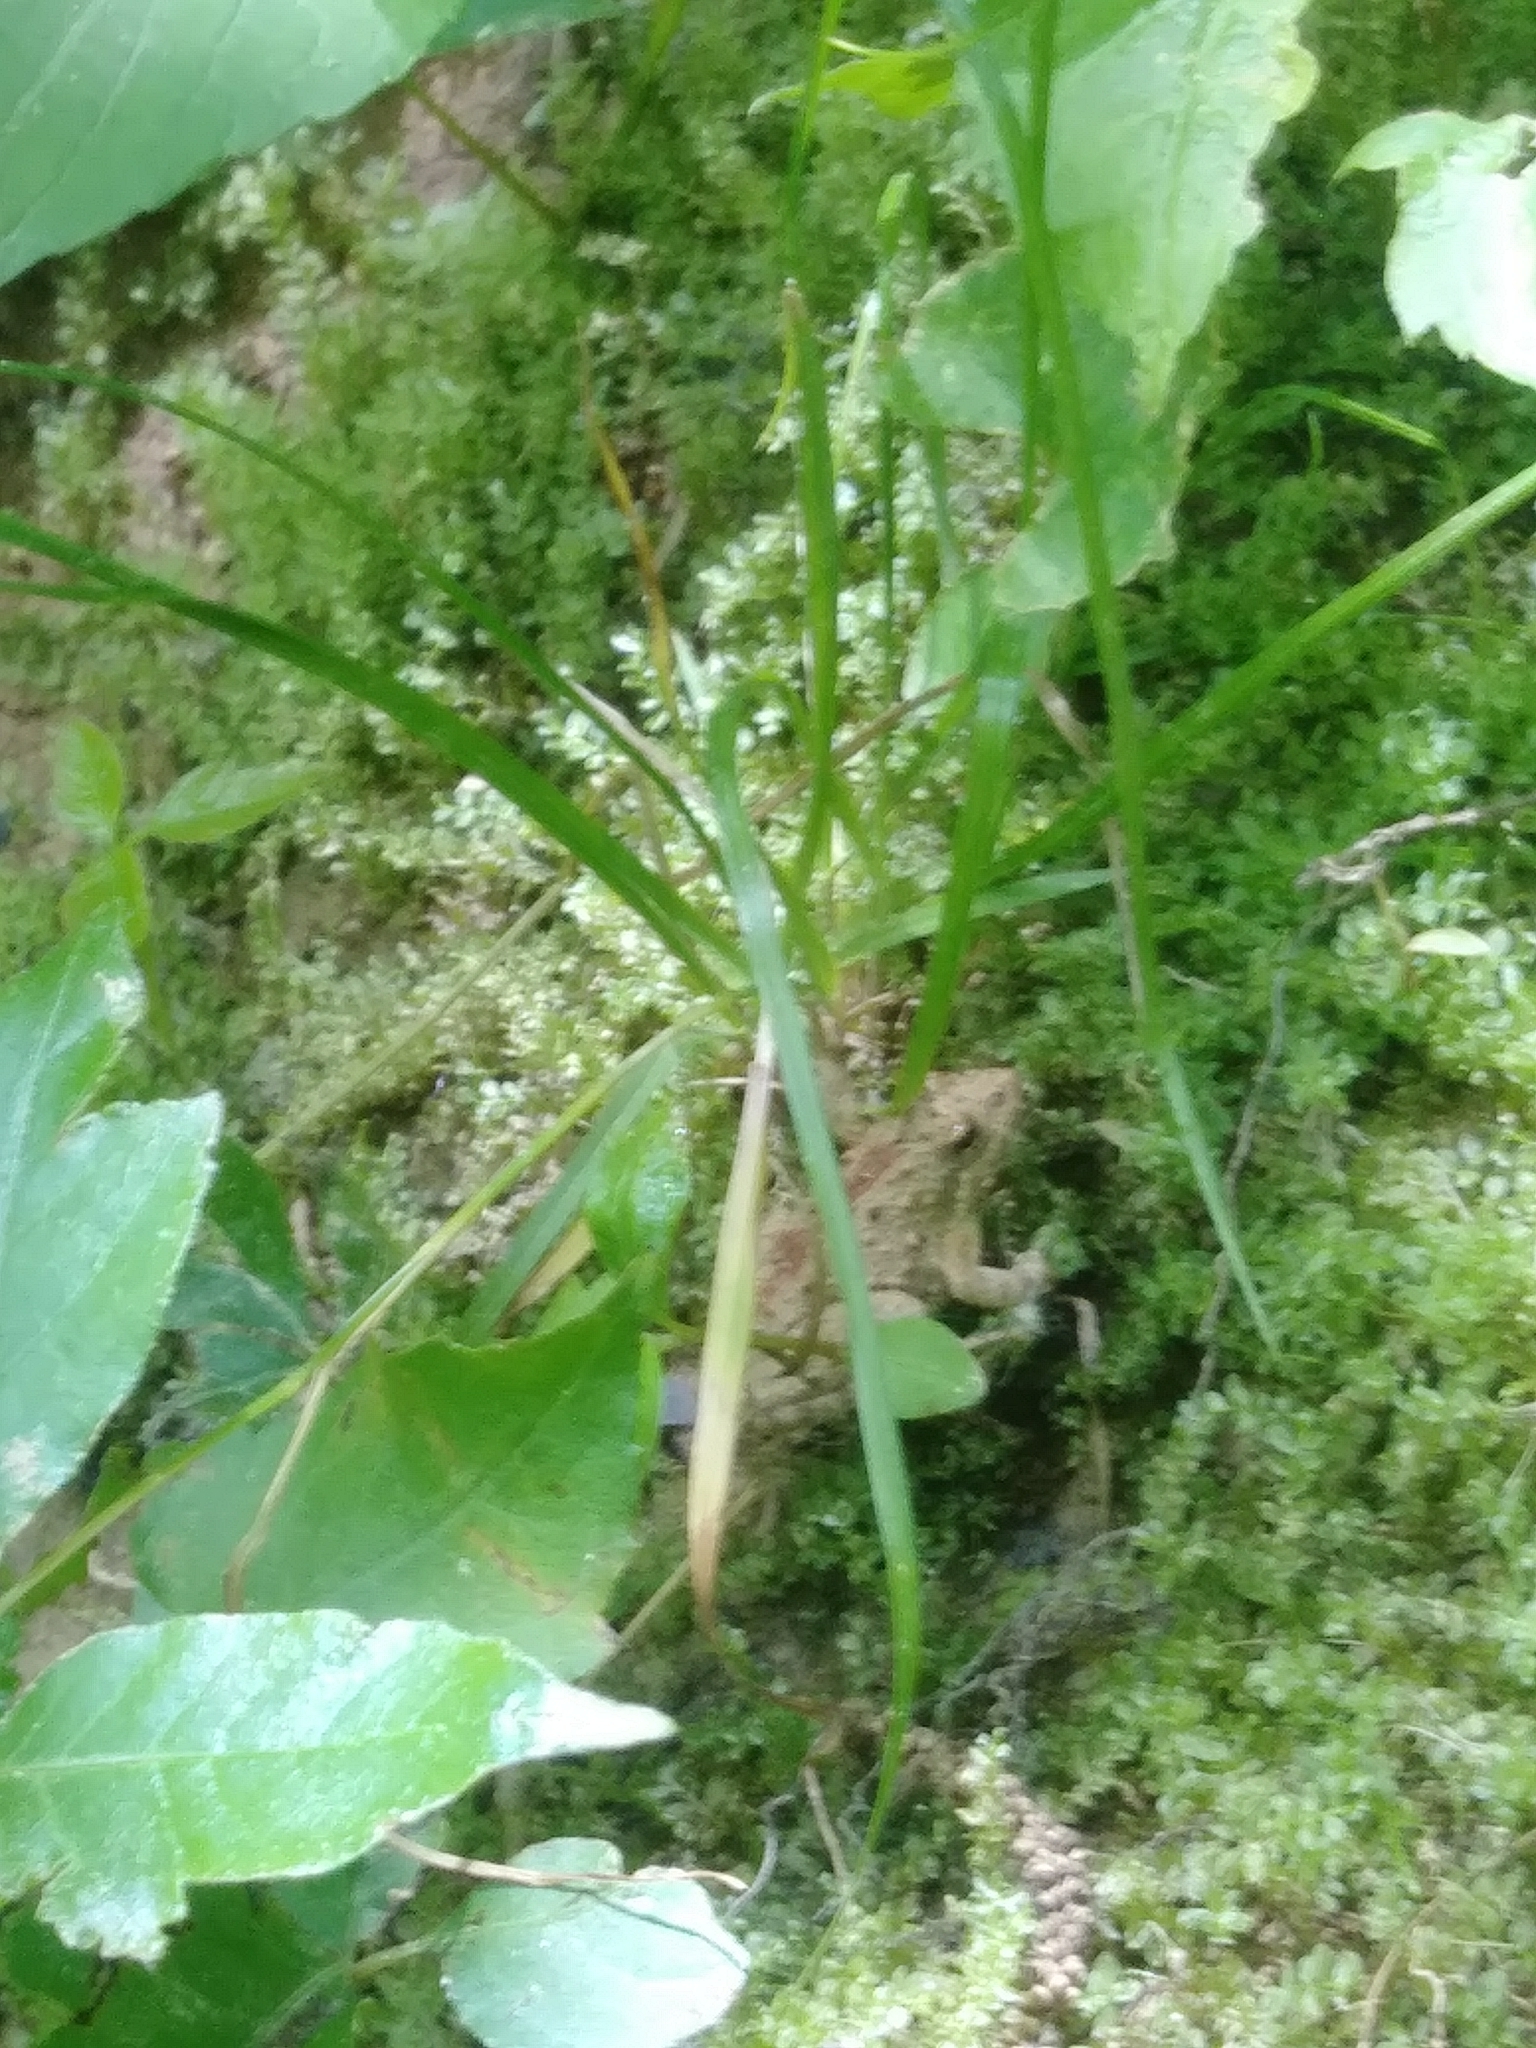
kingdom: Animalia
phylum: Chordata
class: Amphibia
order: Anura
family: Hylidae
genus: Acris
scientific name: Acris crepitans
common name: Northern cricket frog
